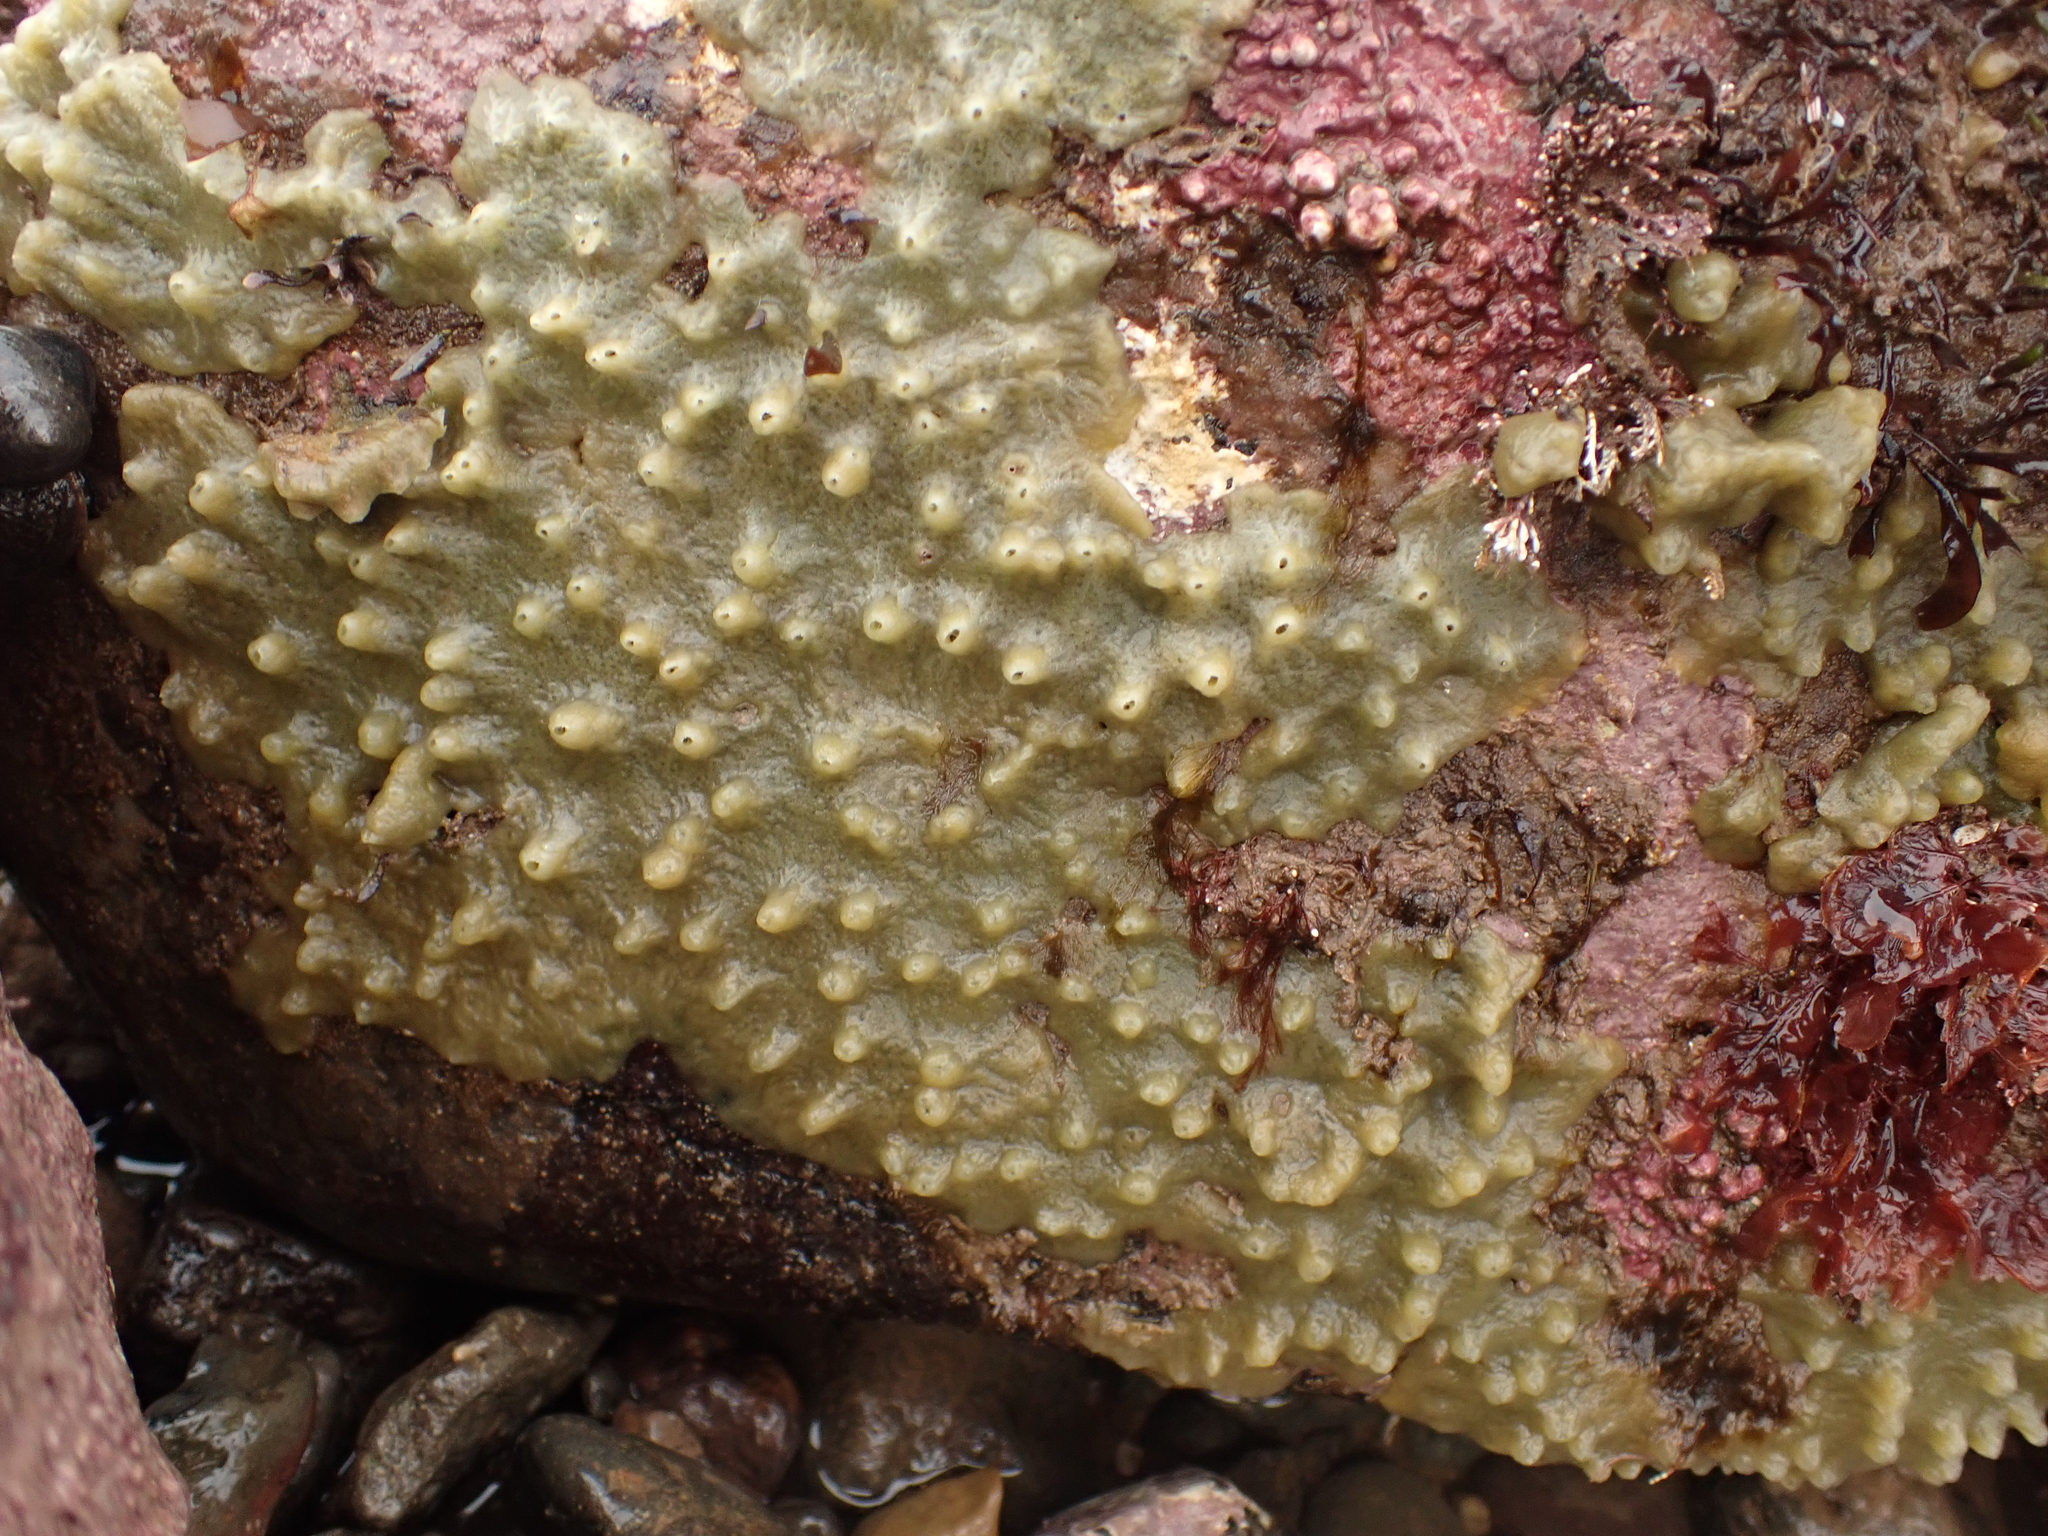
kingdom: Animalia
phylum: Porifera
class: Demospongiae
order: Suberitida
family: Halichondriidae
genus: Halichondria
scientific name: Halichondria panicea
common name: Breadcrumb sponge
